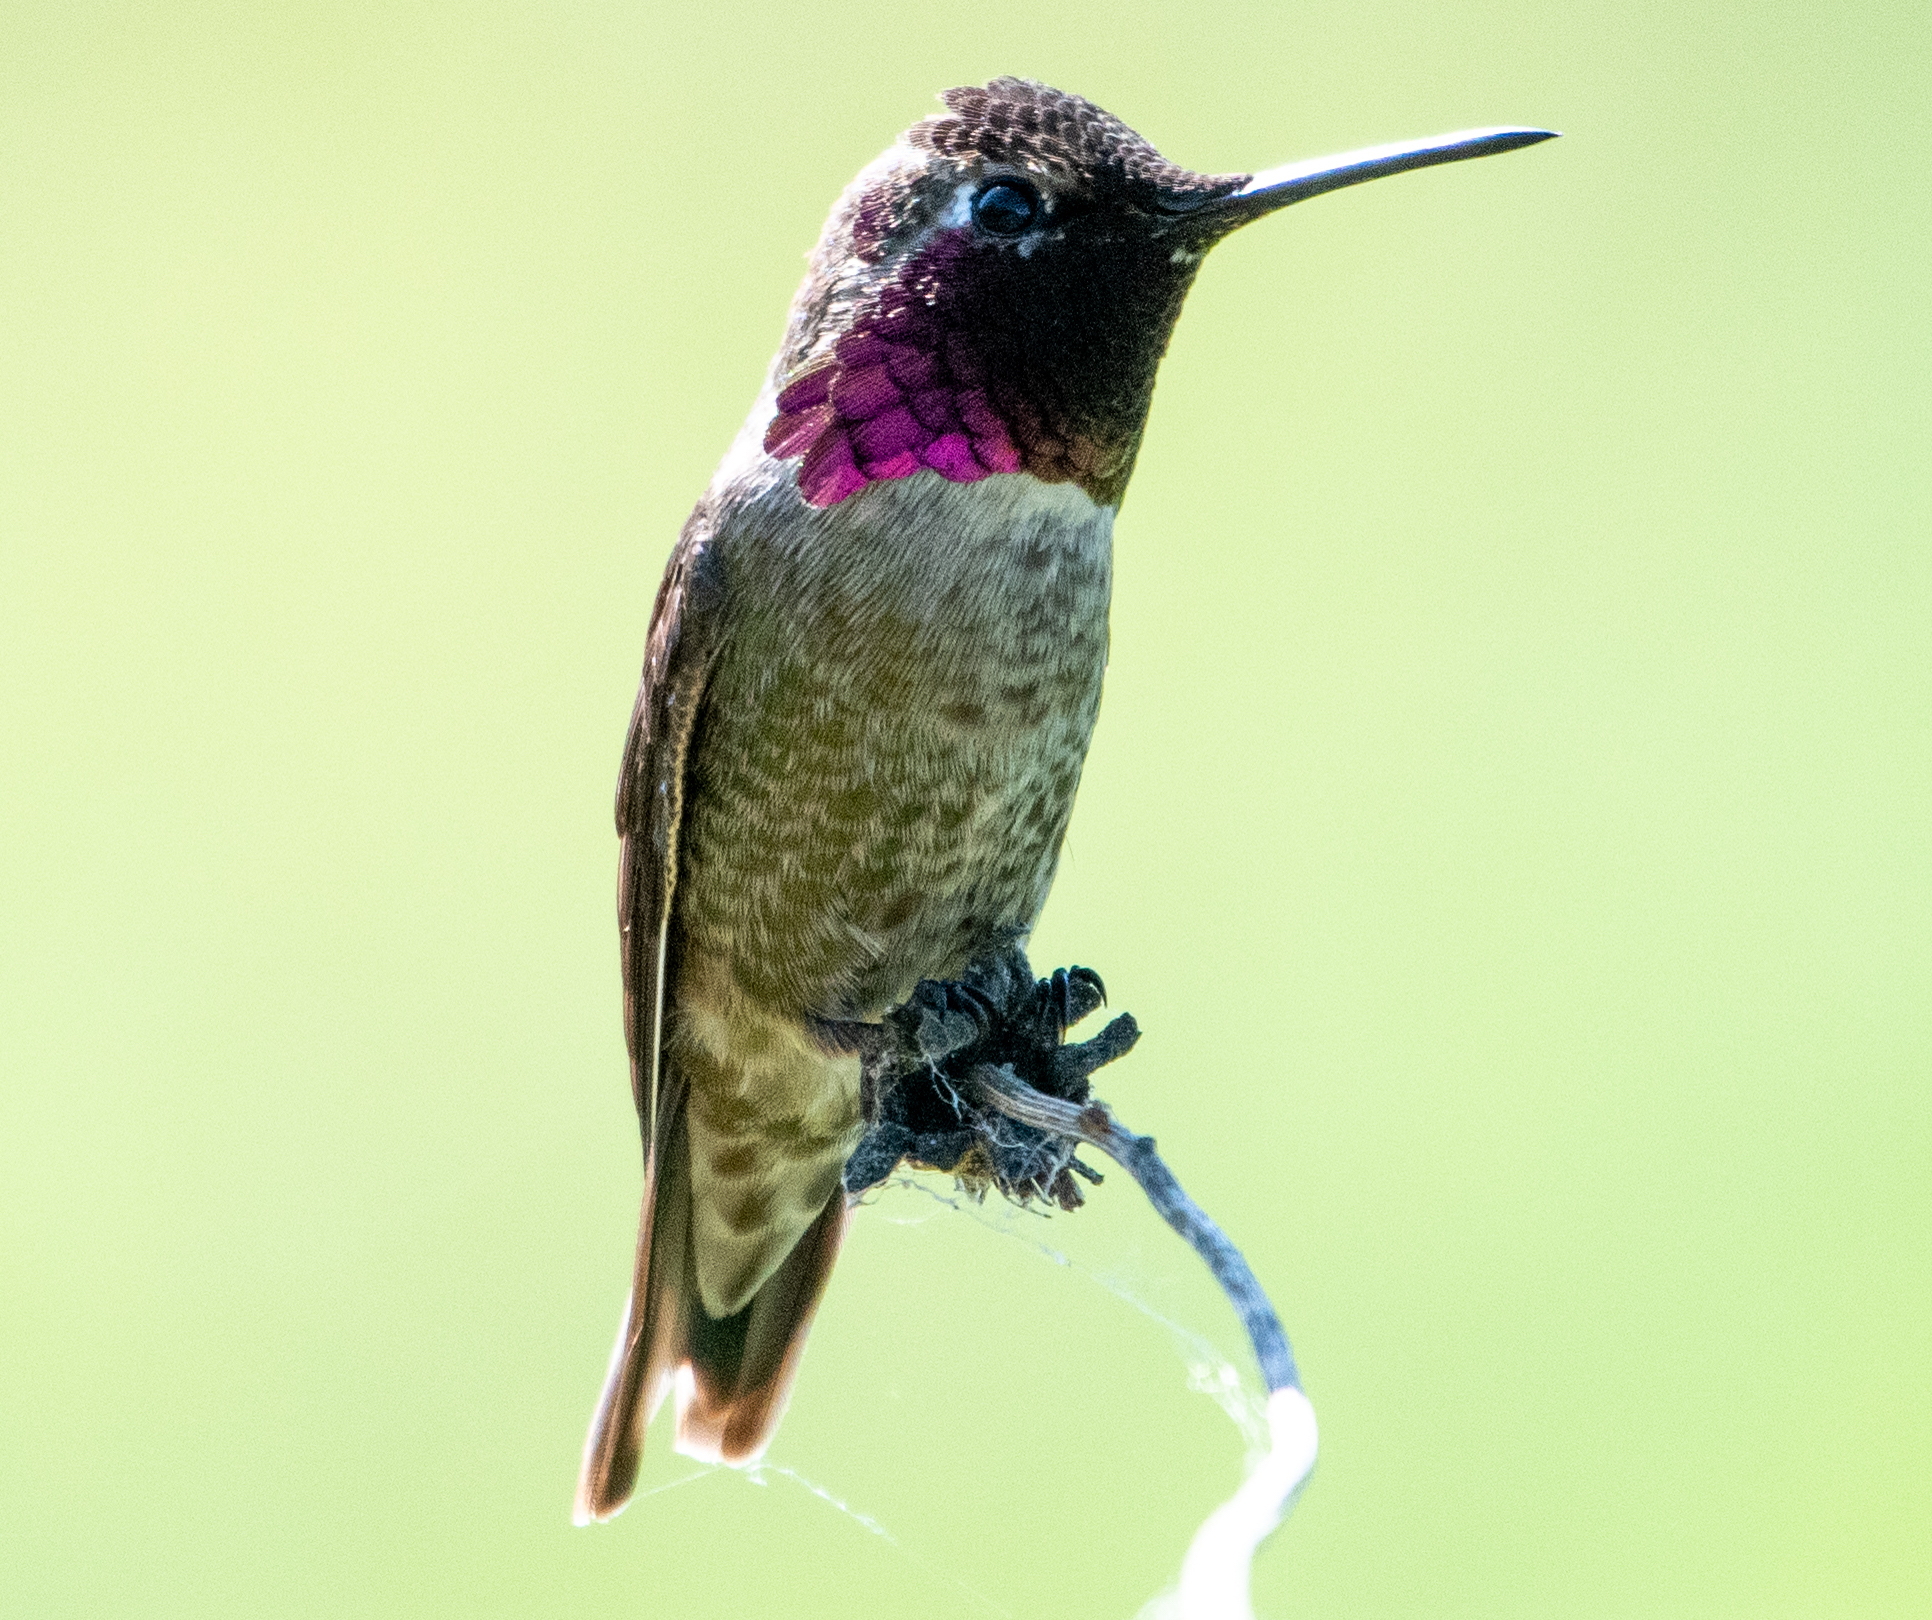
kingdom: Animalia
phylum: Chordata
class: Aves
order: Apodiformes
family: Trochilidae
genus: Calypte
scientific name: Calypte anna
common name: Anna's hummingbird
